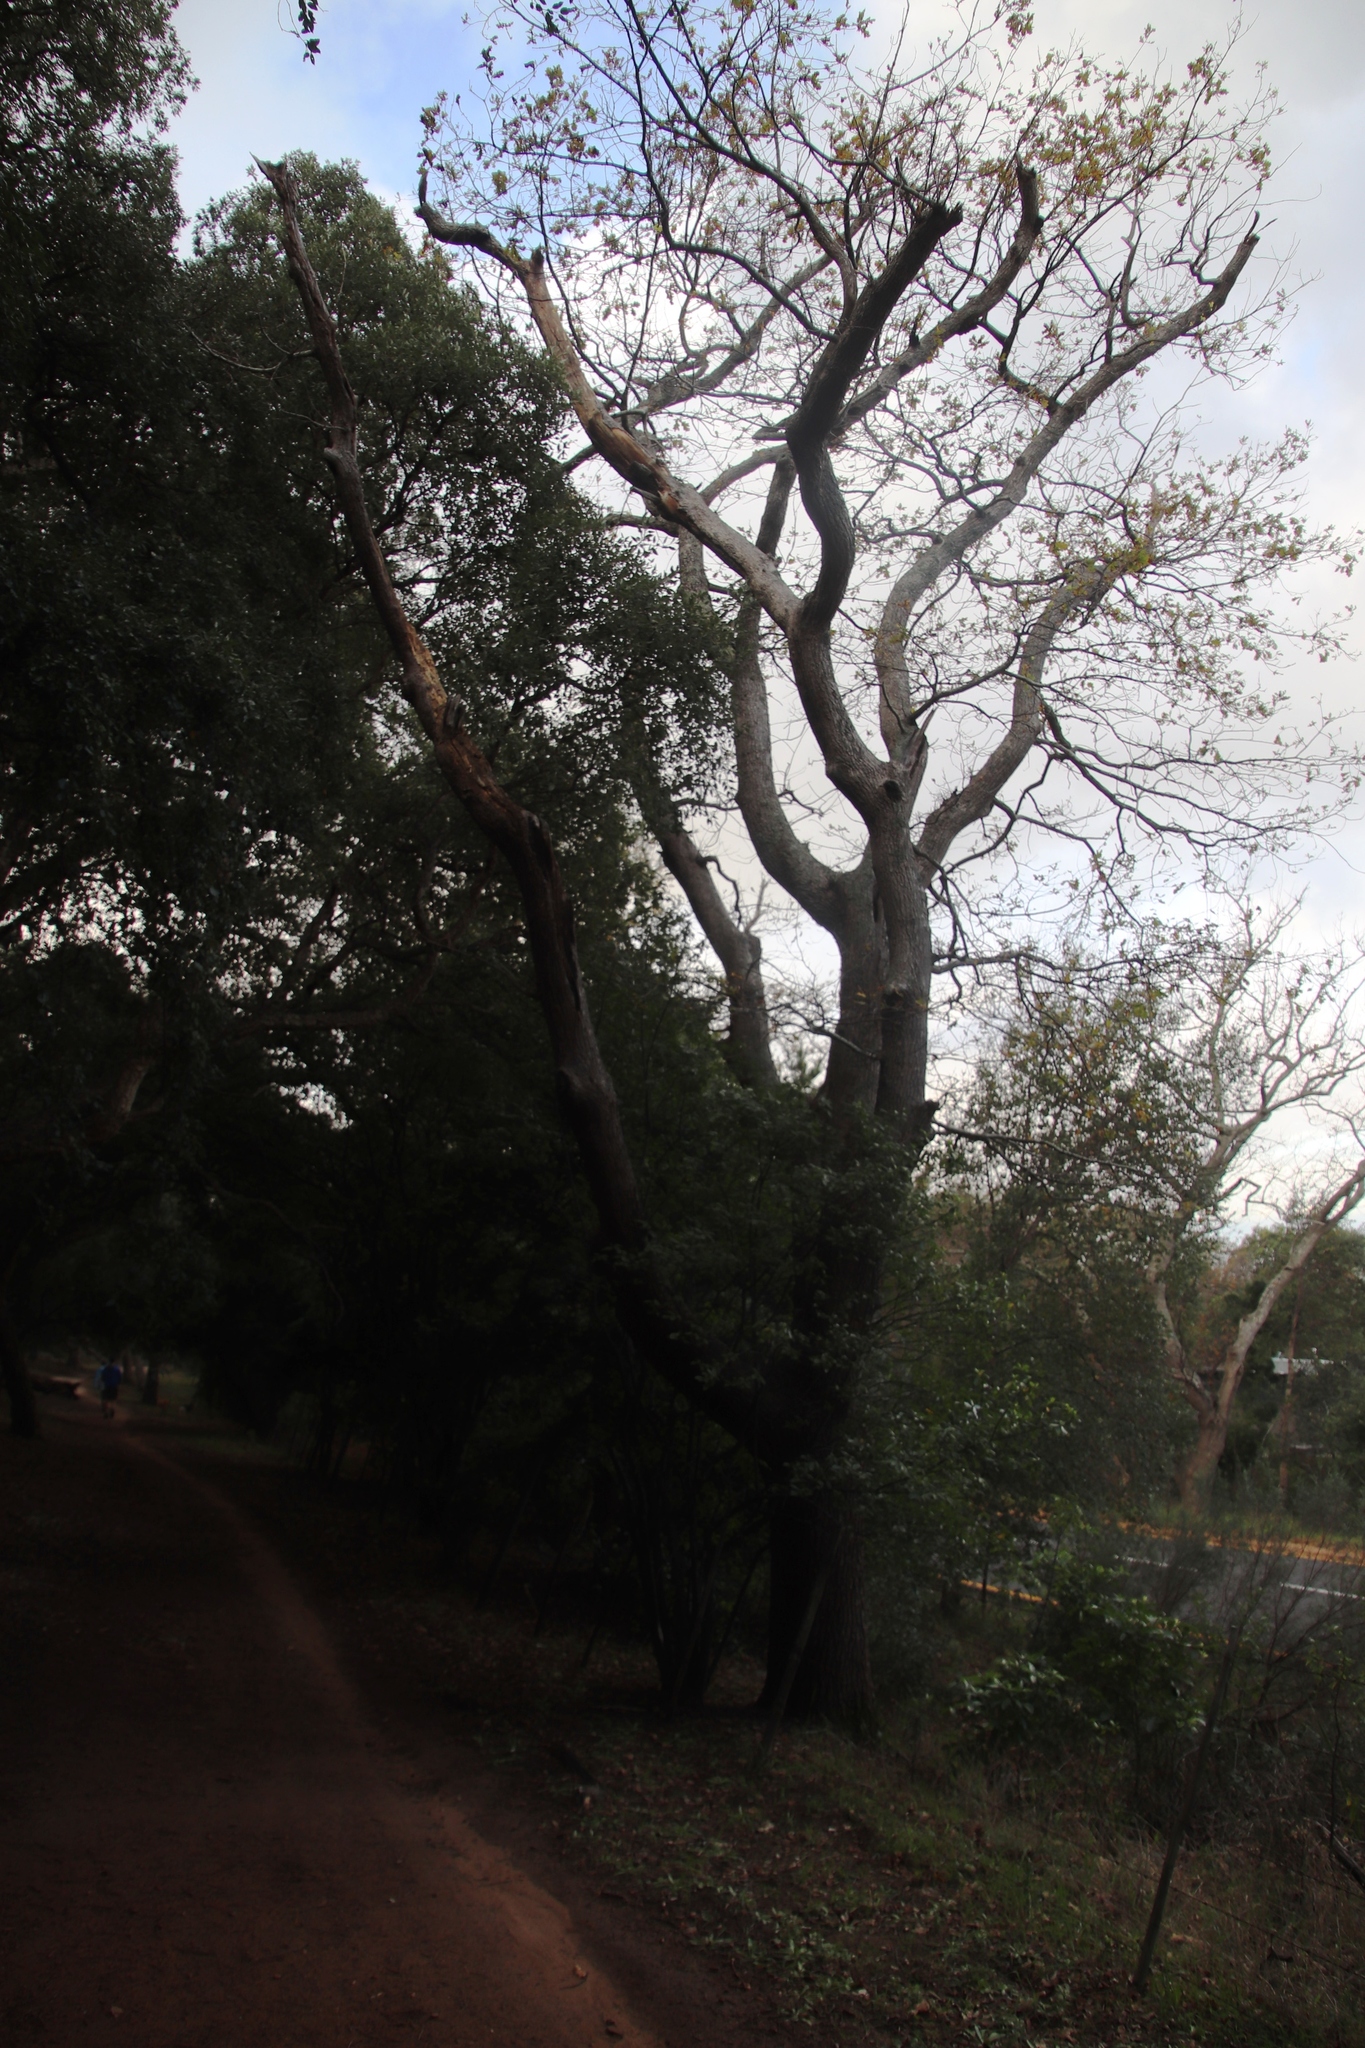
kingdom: Plantae
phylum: Tracheophyta
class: Magnoliopsida
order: Fagales
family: Fagaceae
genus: Quercus
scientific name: Quercus robur
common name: Pedunculate oak
